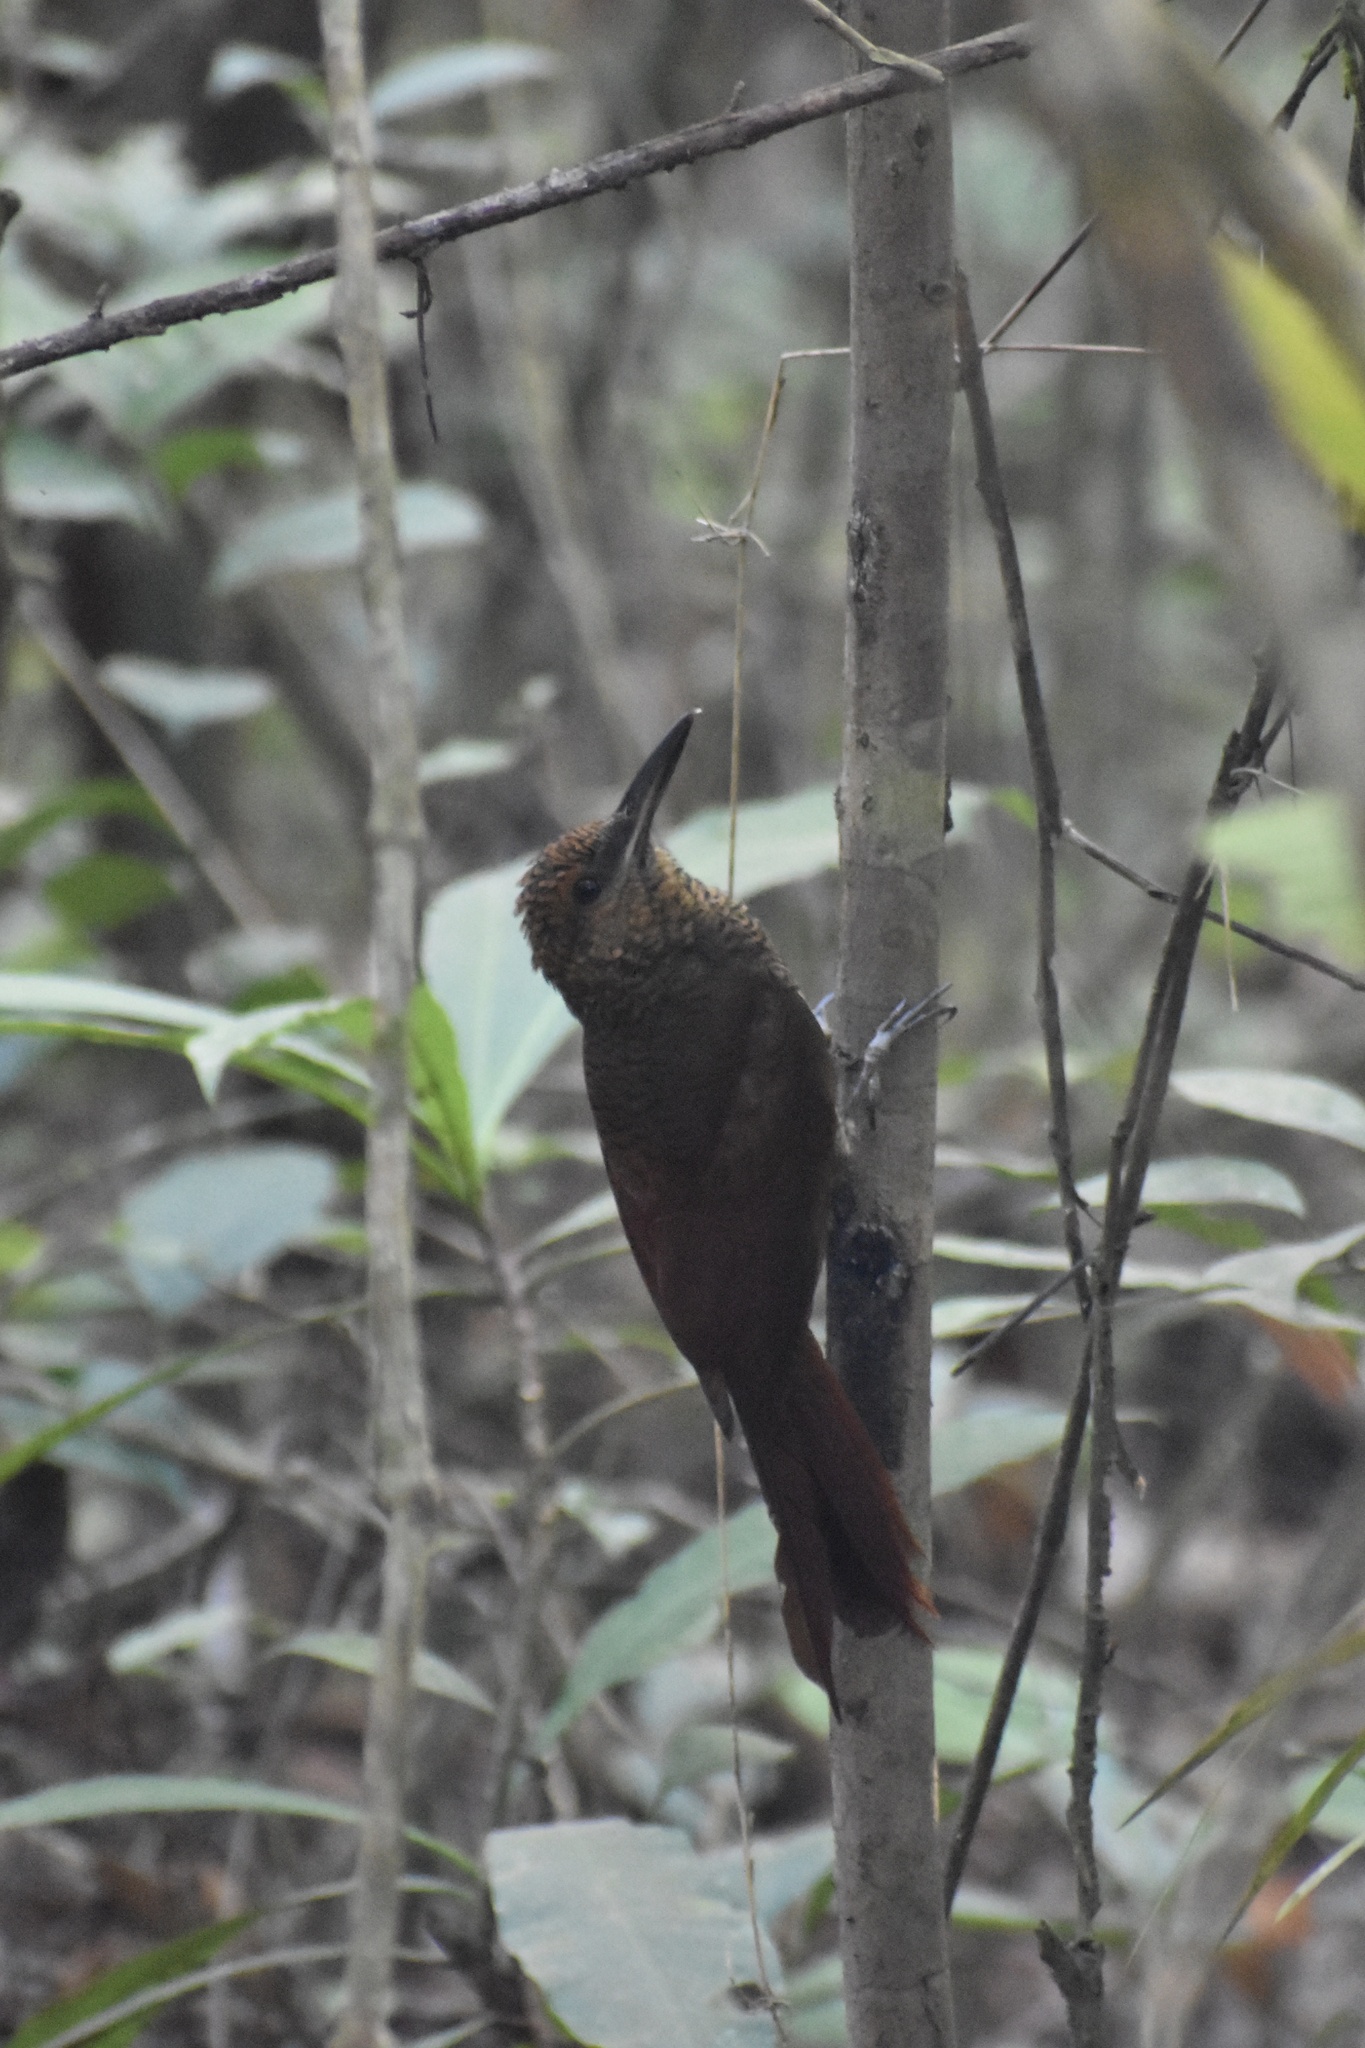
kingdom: Animalia
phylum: Chordata
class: Aves
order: Passeriformes
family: Furnariidae
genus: Dendrocolaptes
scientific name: Dendrocolaptes sanctithomae
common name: Northern barred-woodcreeper
